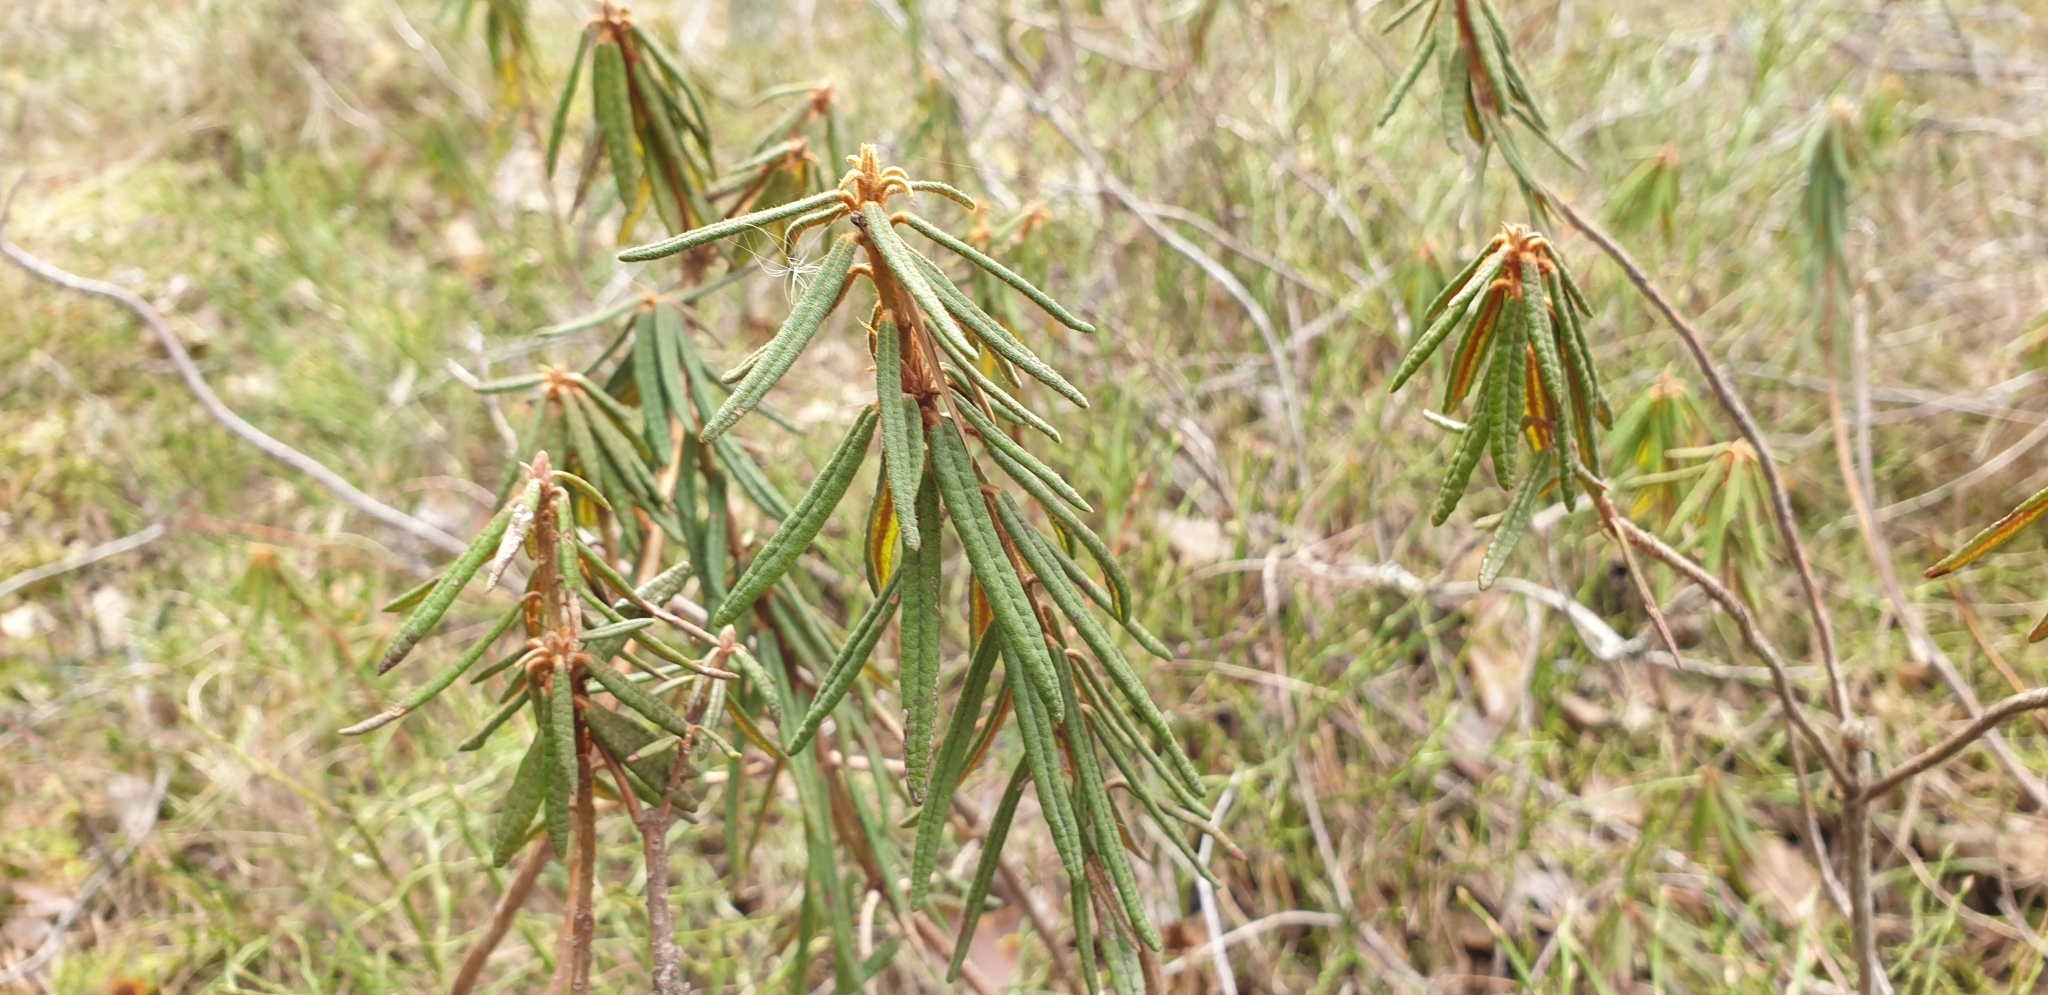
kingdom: Plantae
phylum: Tracheophyta
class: Magnoliopsida
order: Ericales
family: Ericaceae
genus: Rhododendron
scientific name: Rhododendron tomentosum
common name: Marsh labrador tea
